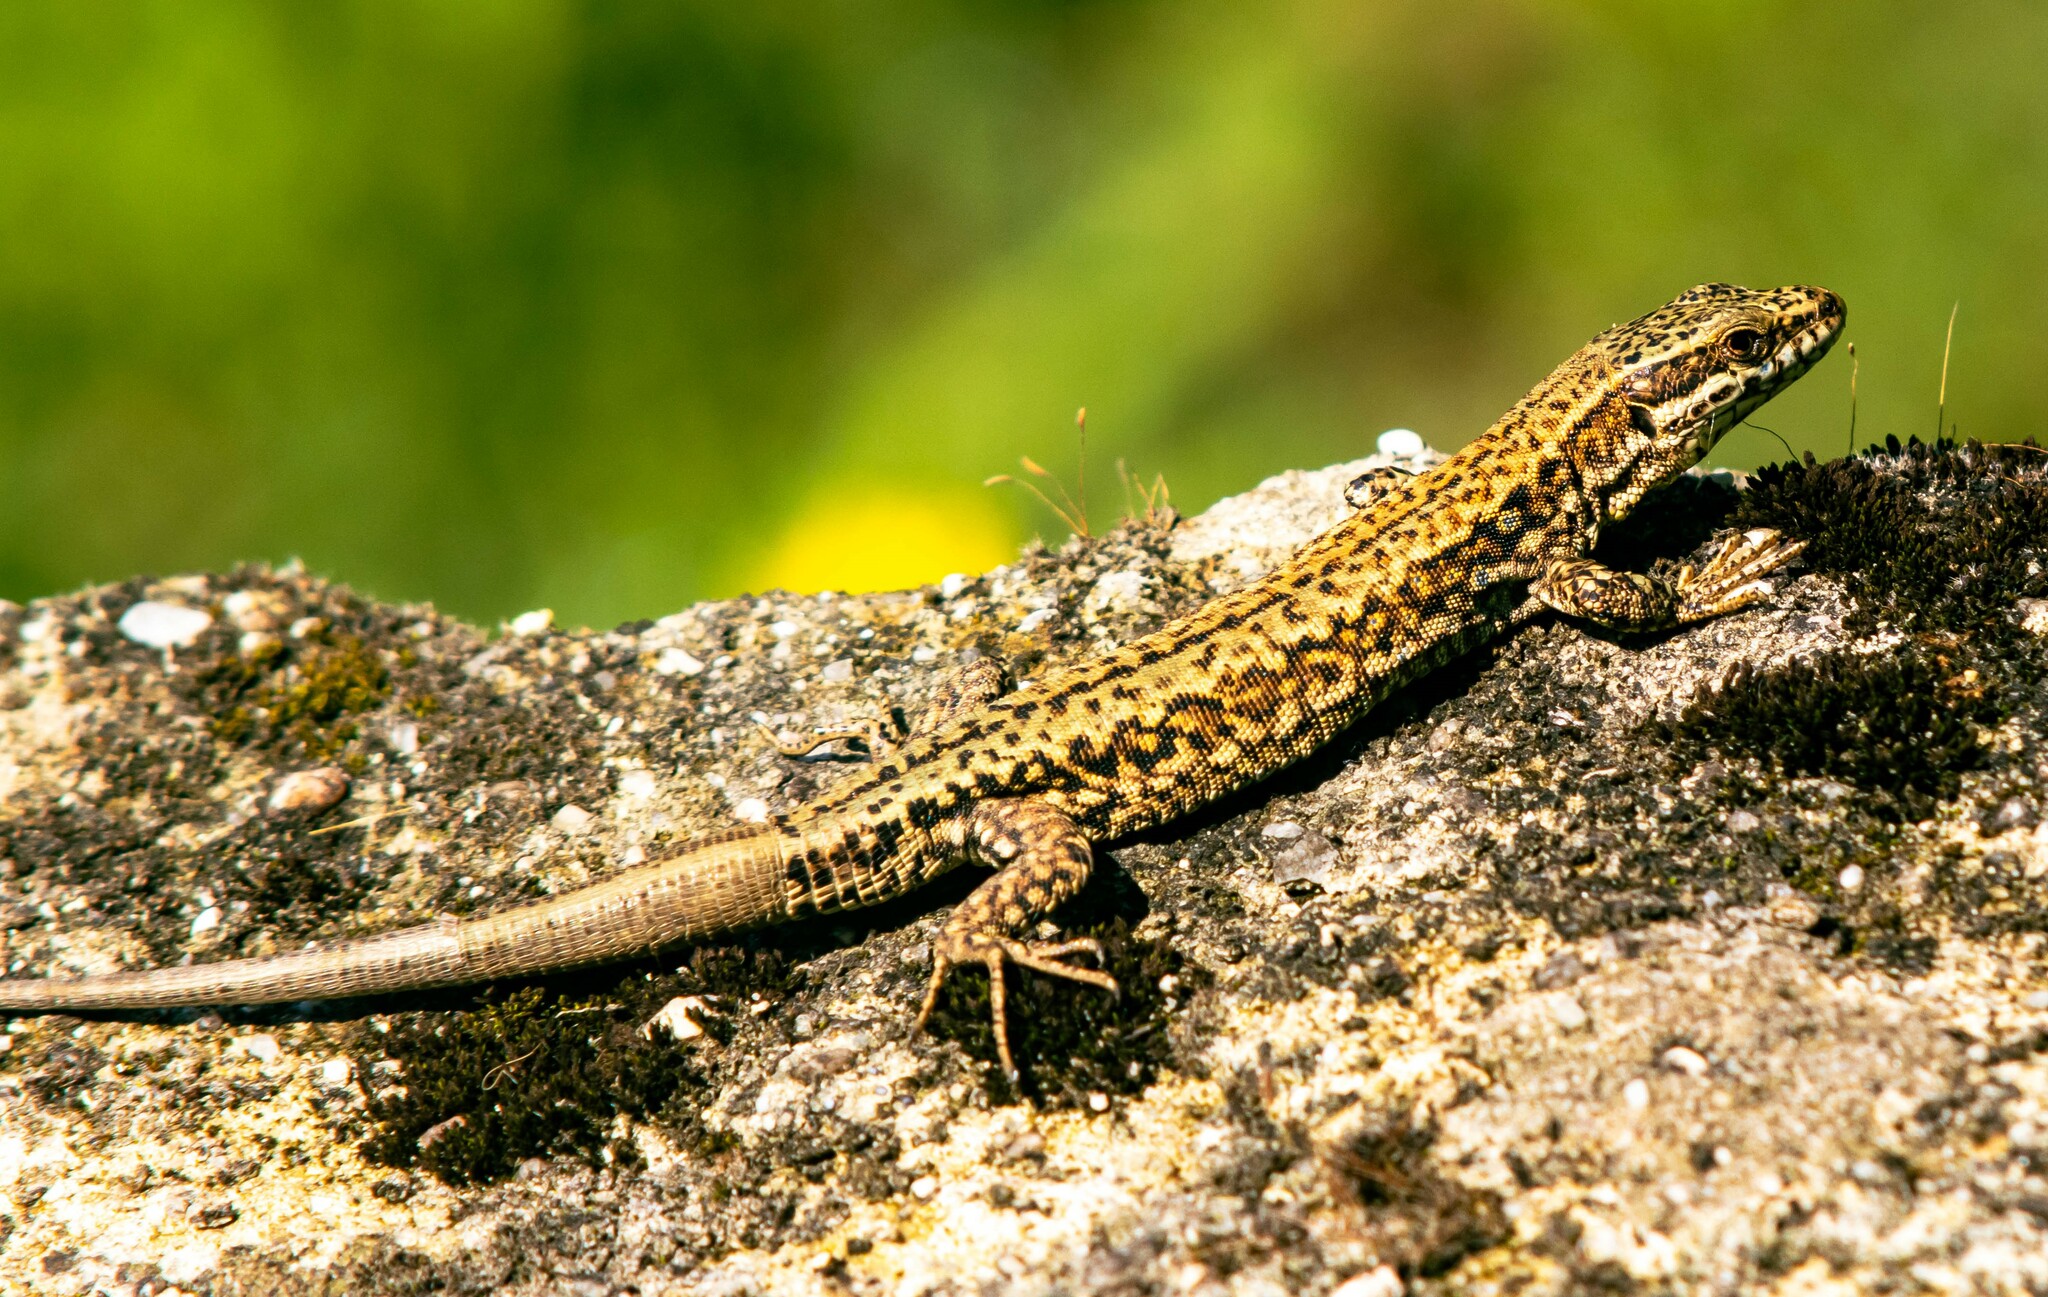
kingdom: Animalia
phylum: Chordata
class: Squamata
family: Lacertidae
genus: Podarcis
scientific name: Podarcis muralis
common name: Common wall lizard
